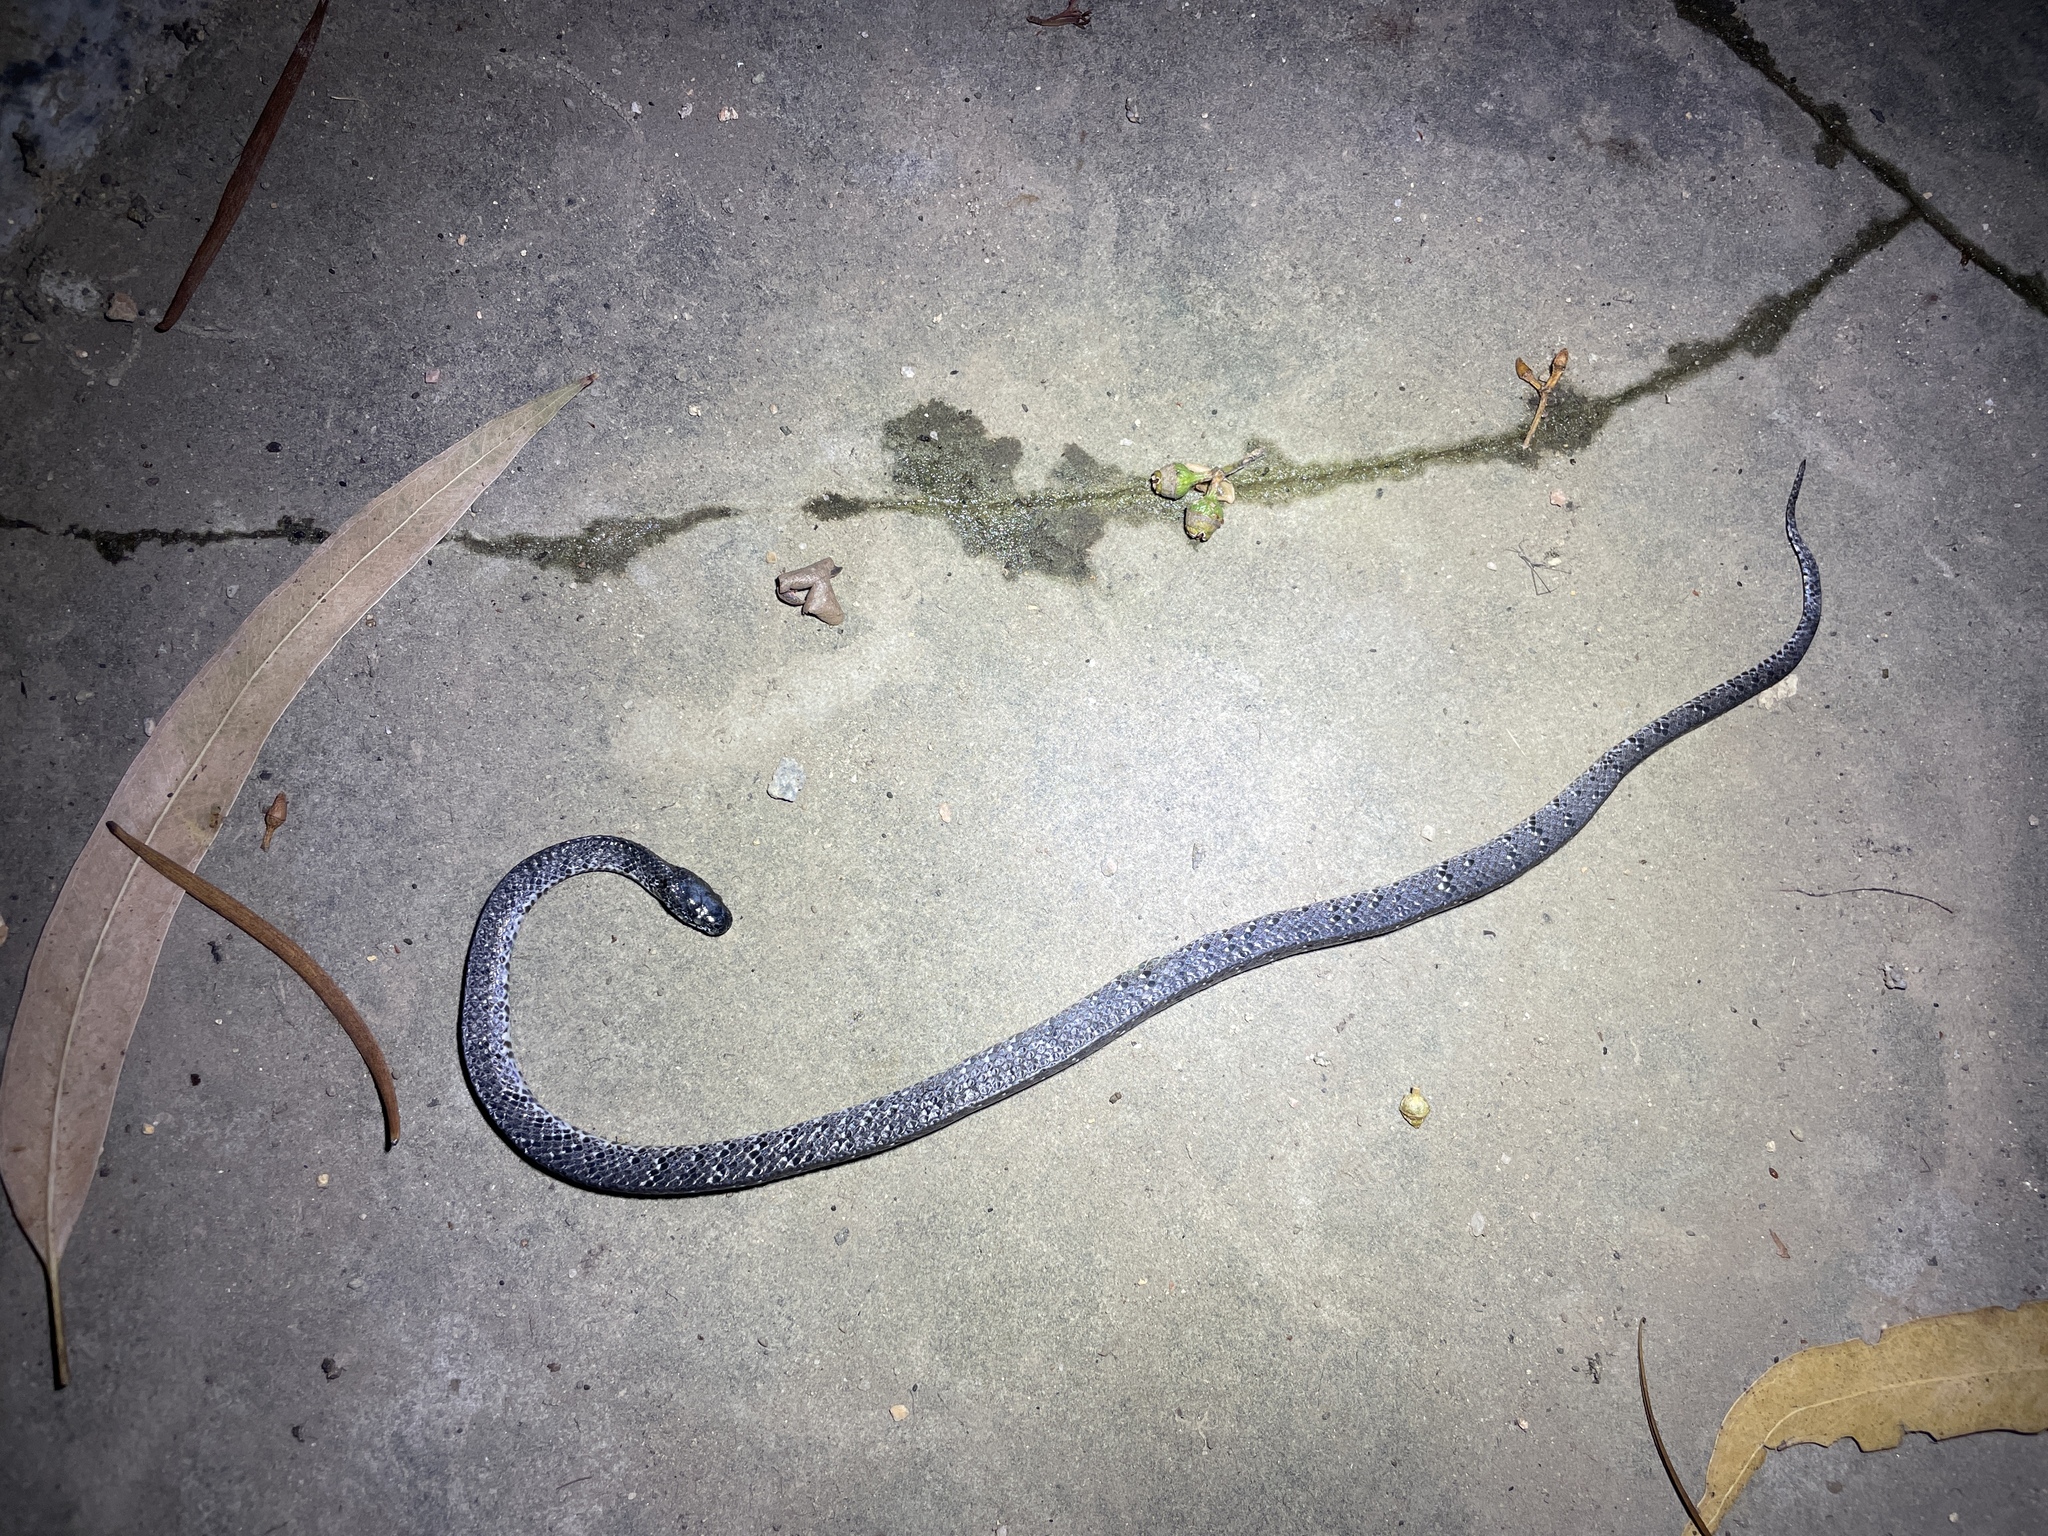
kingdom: Animalia
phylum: Chordata
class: Squamata
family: Pareidae
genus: Pareas
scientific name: Pareas margaritophorus
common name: Mountain slug snake
